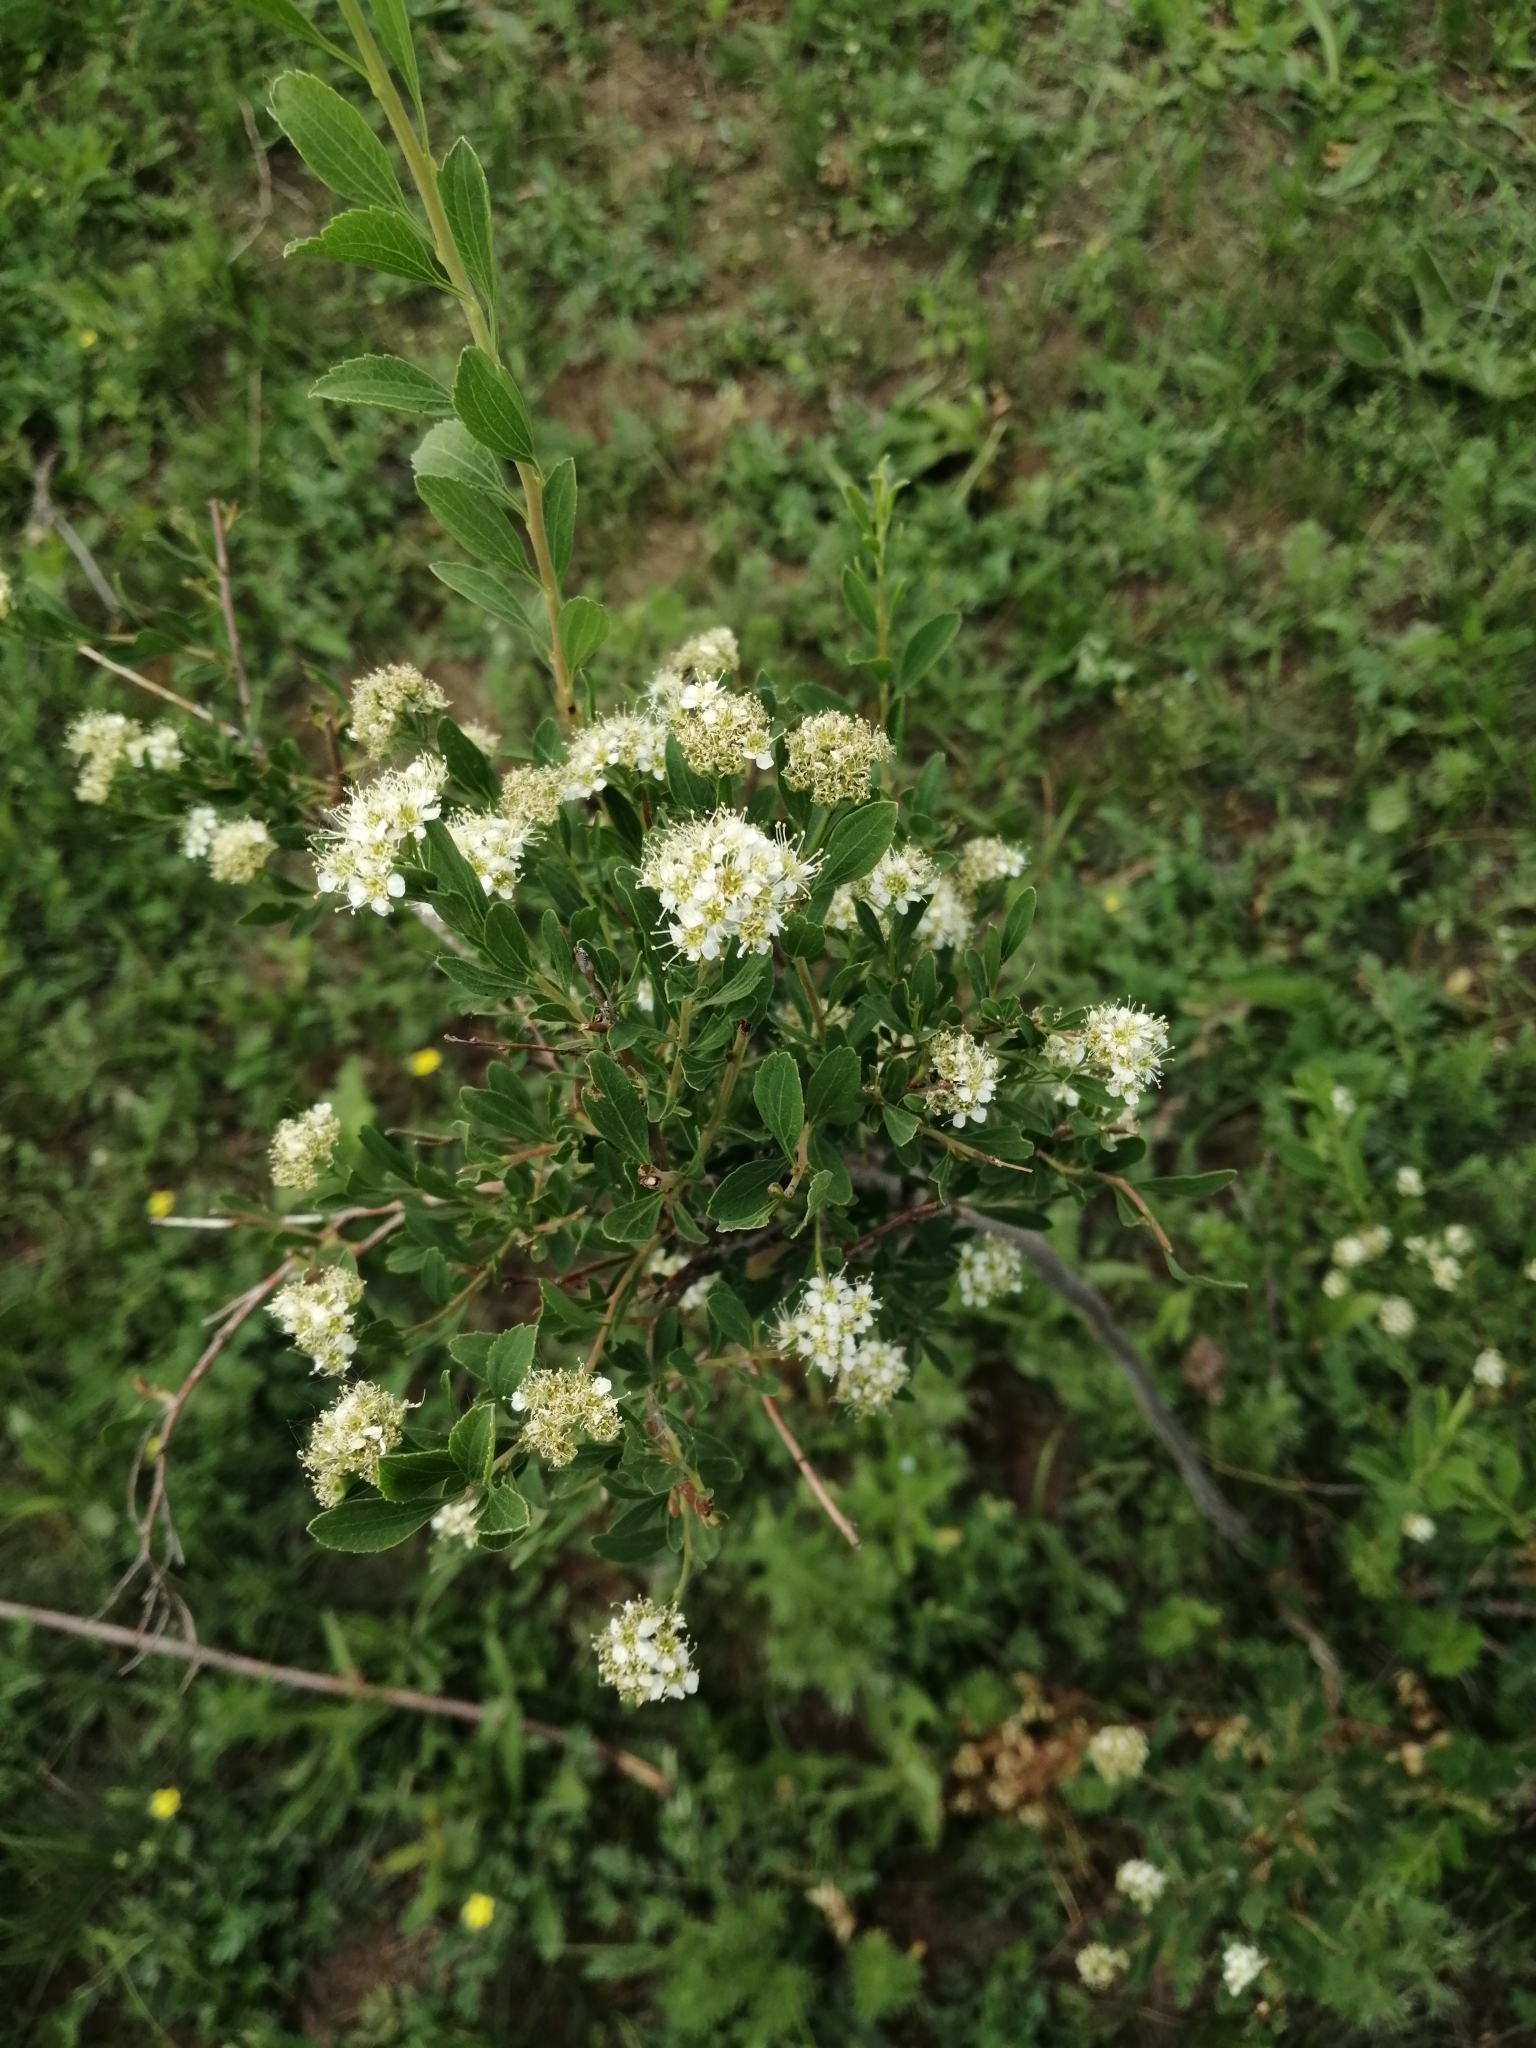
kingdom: Plantae
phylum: Tracheophyta
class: Magnoliopsida
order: Rosales
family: Rosaceae
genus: Spiraea
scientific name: Spiraea crenata
